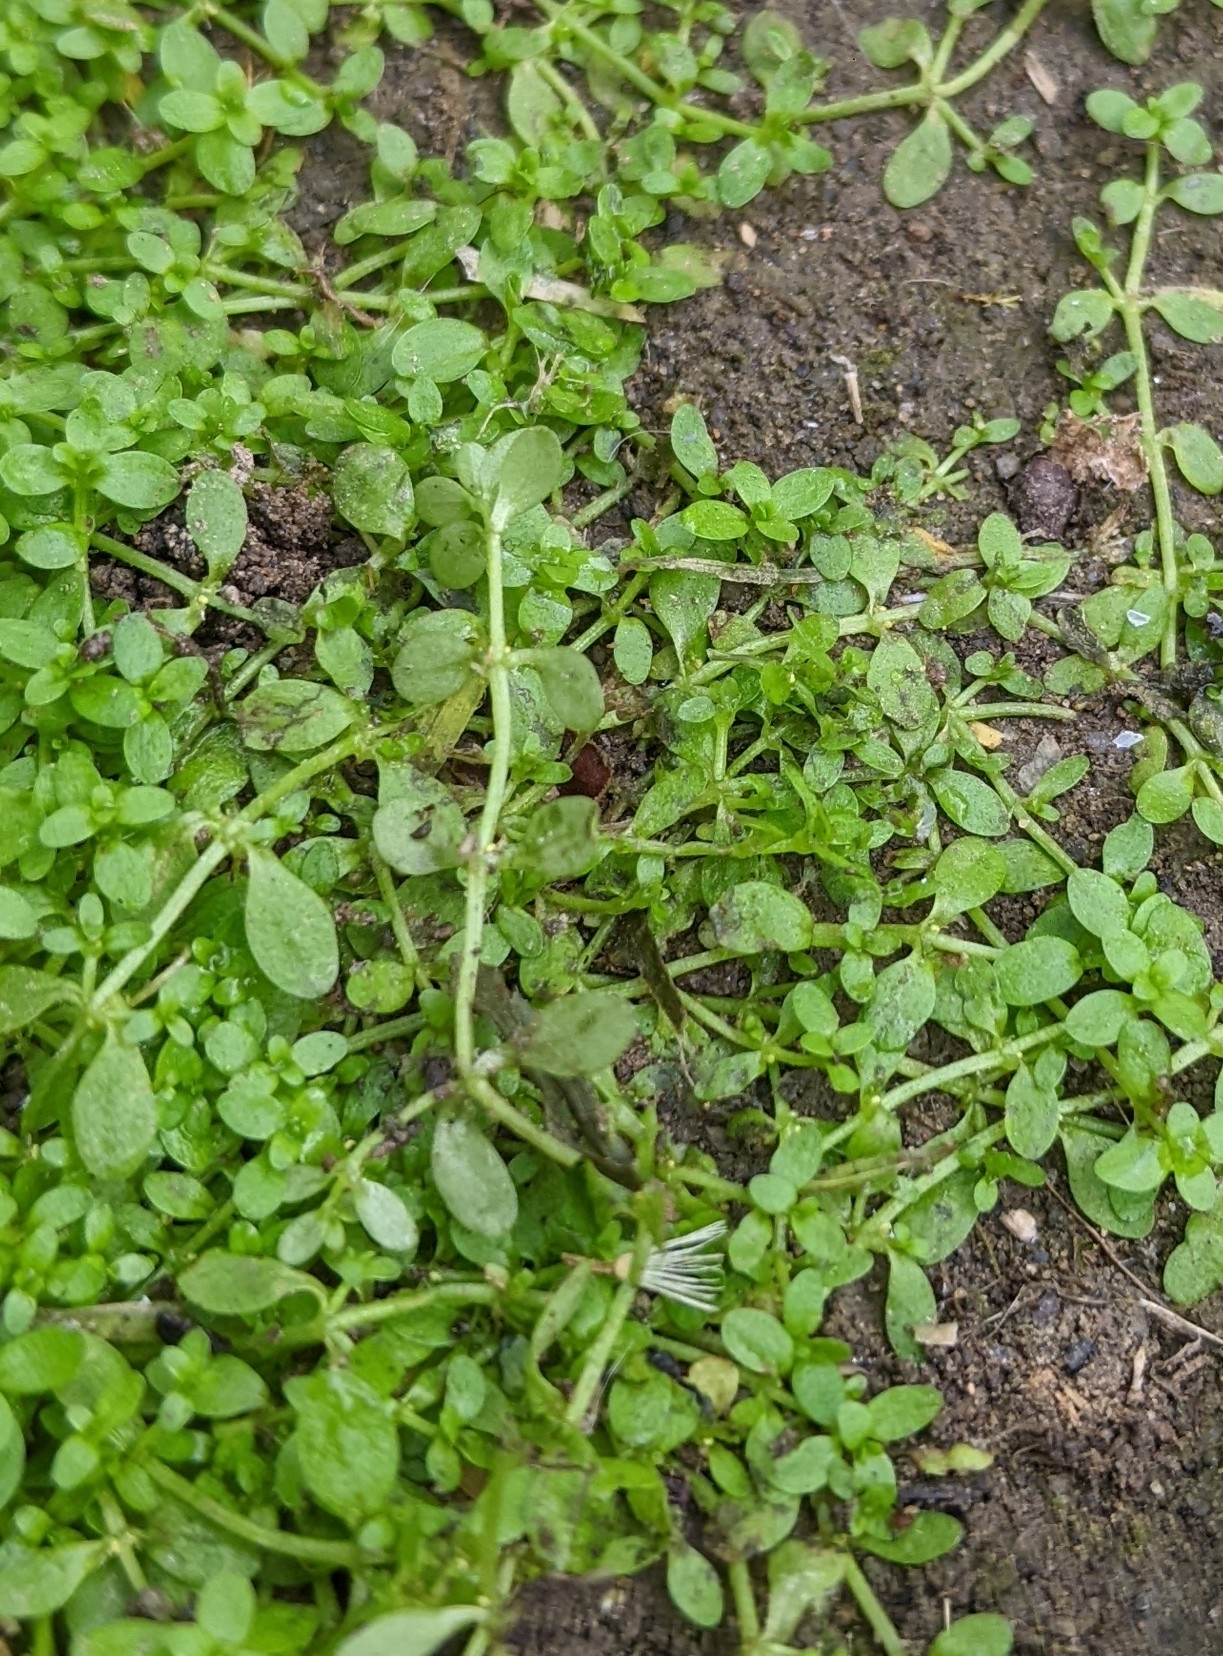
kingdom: Plantae
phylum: Tracheophyta
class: Magnoliopsida
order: Gentianales
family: Rubiaceae
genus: Dentella
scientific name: Dentella repens
